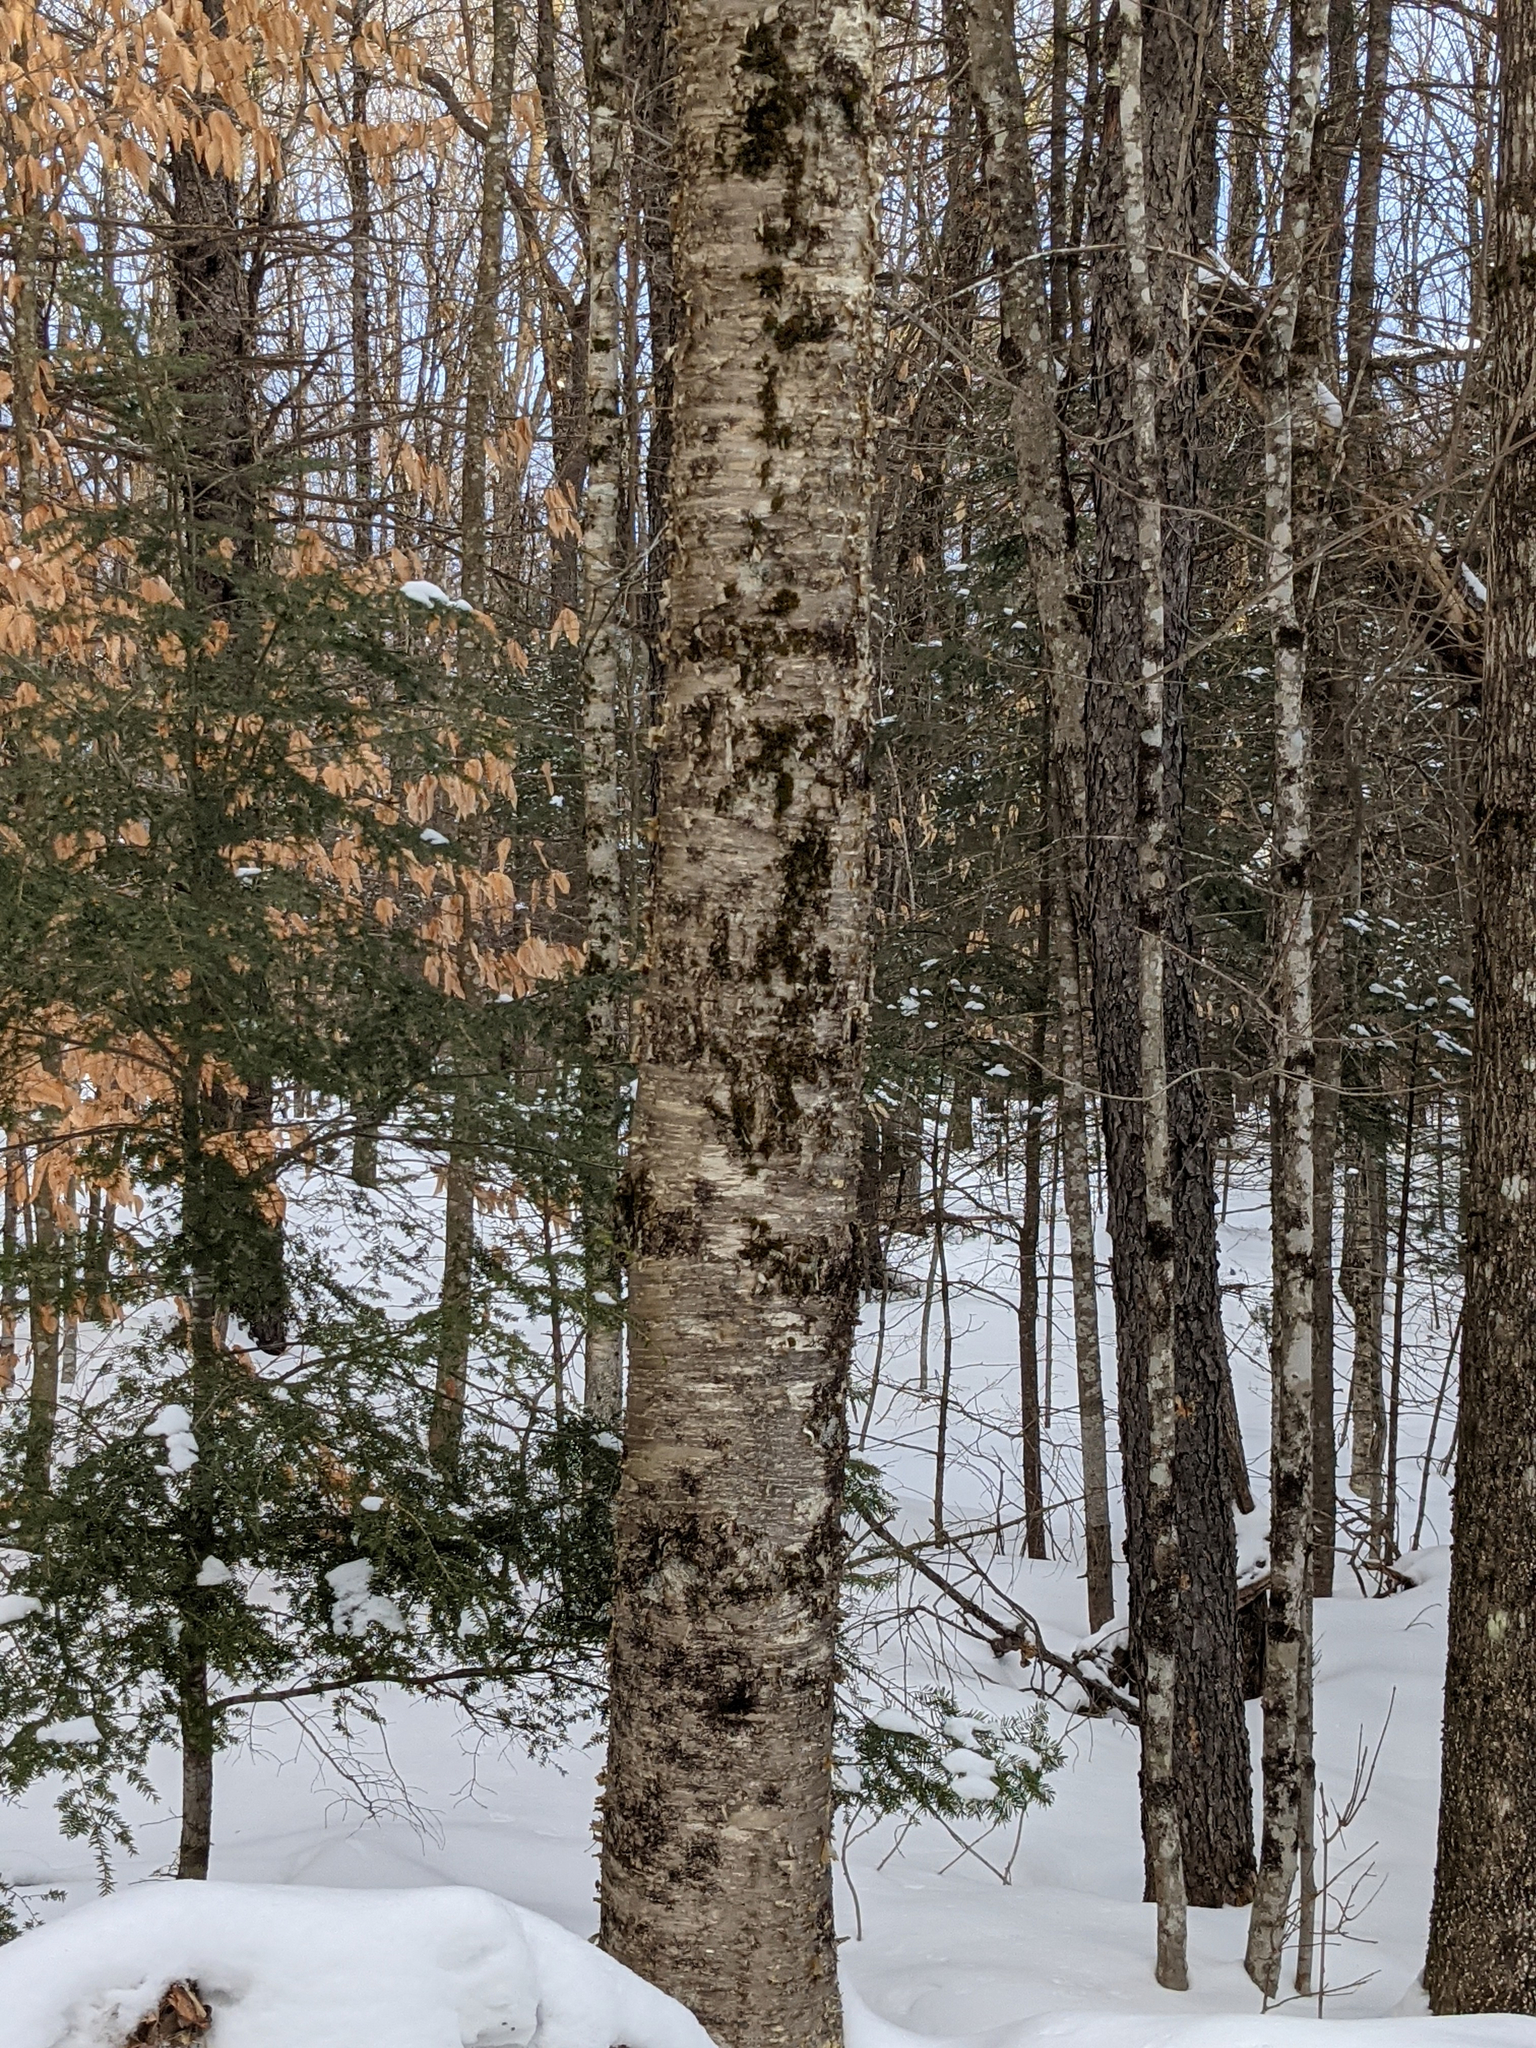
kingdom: Plantae
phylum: Tracheophyta
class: Magnoliopsida
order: Fagales
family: Betulaceae
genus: Betula
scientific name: Betula alleghaniensis
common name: Yellow birch
